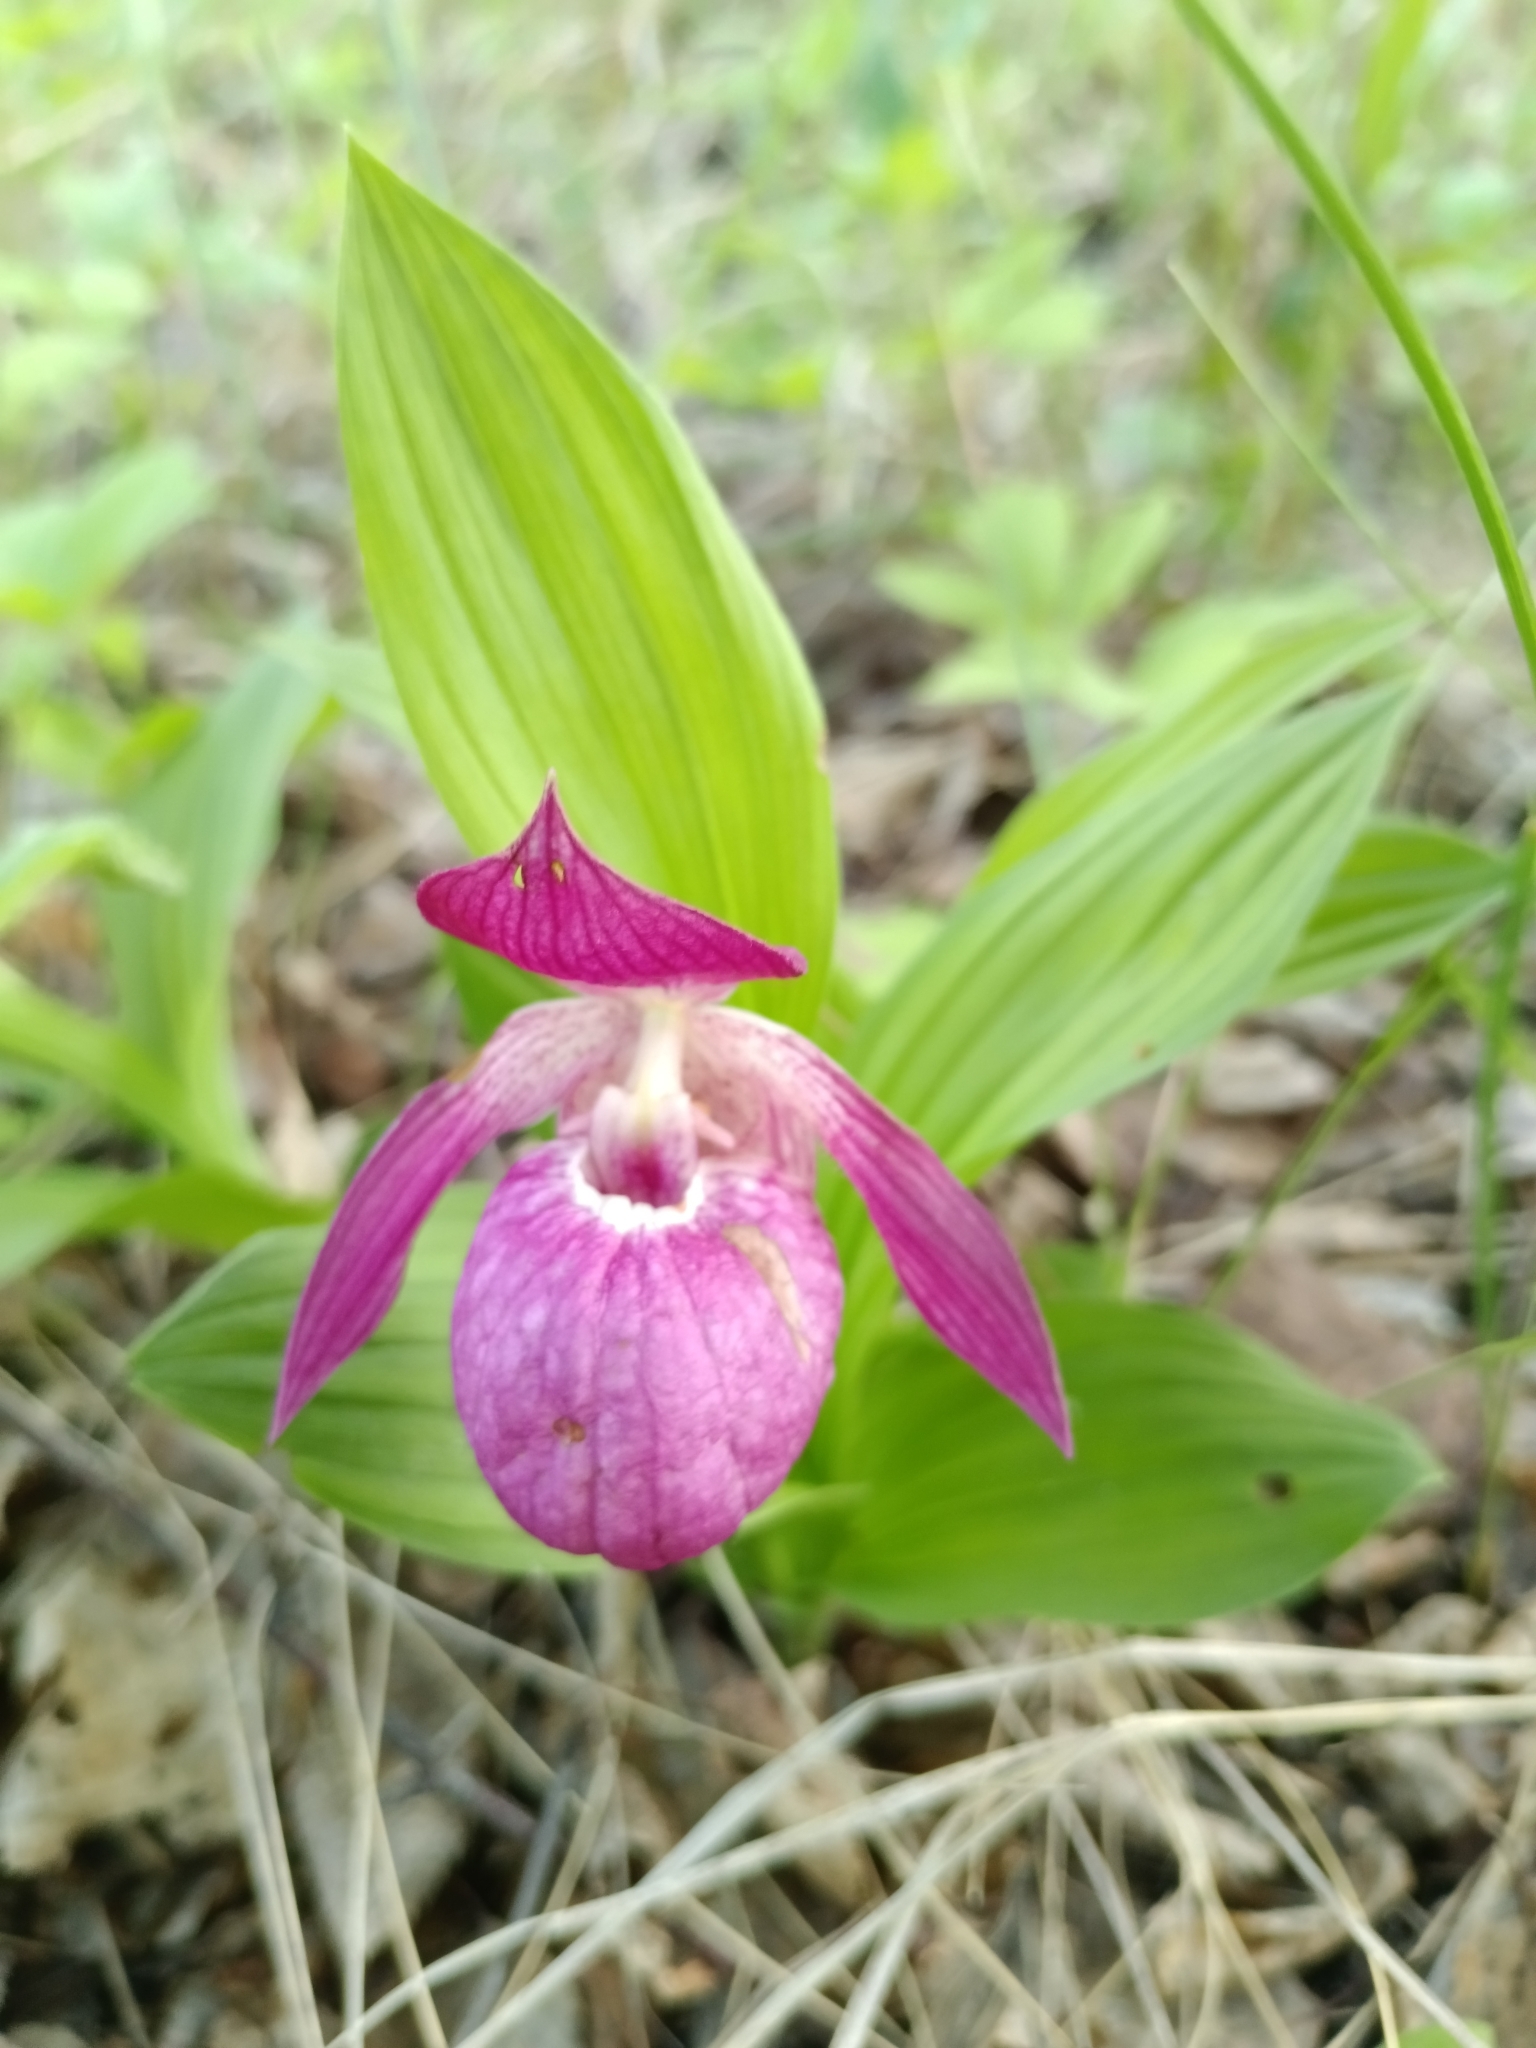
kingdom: Plantae
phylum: Tracheophyta
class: Liliopsida
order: Asparagales
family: Orchidaceae
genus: Cypripedium
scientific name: Cypripedium macranthos
